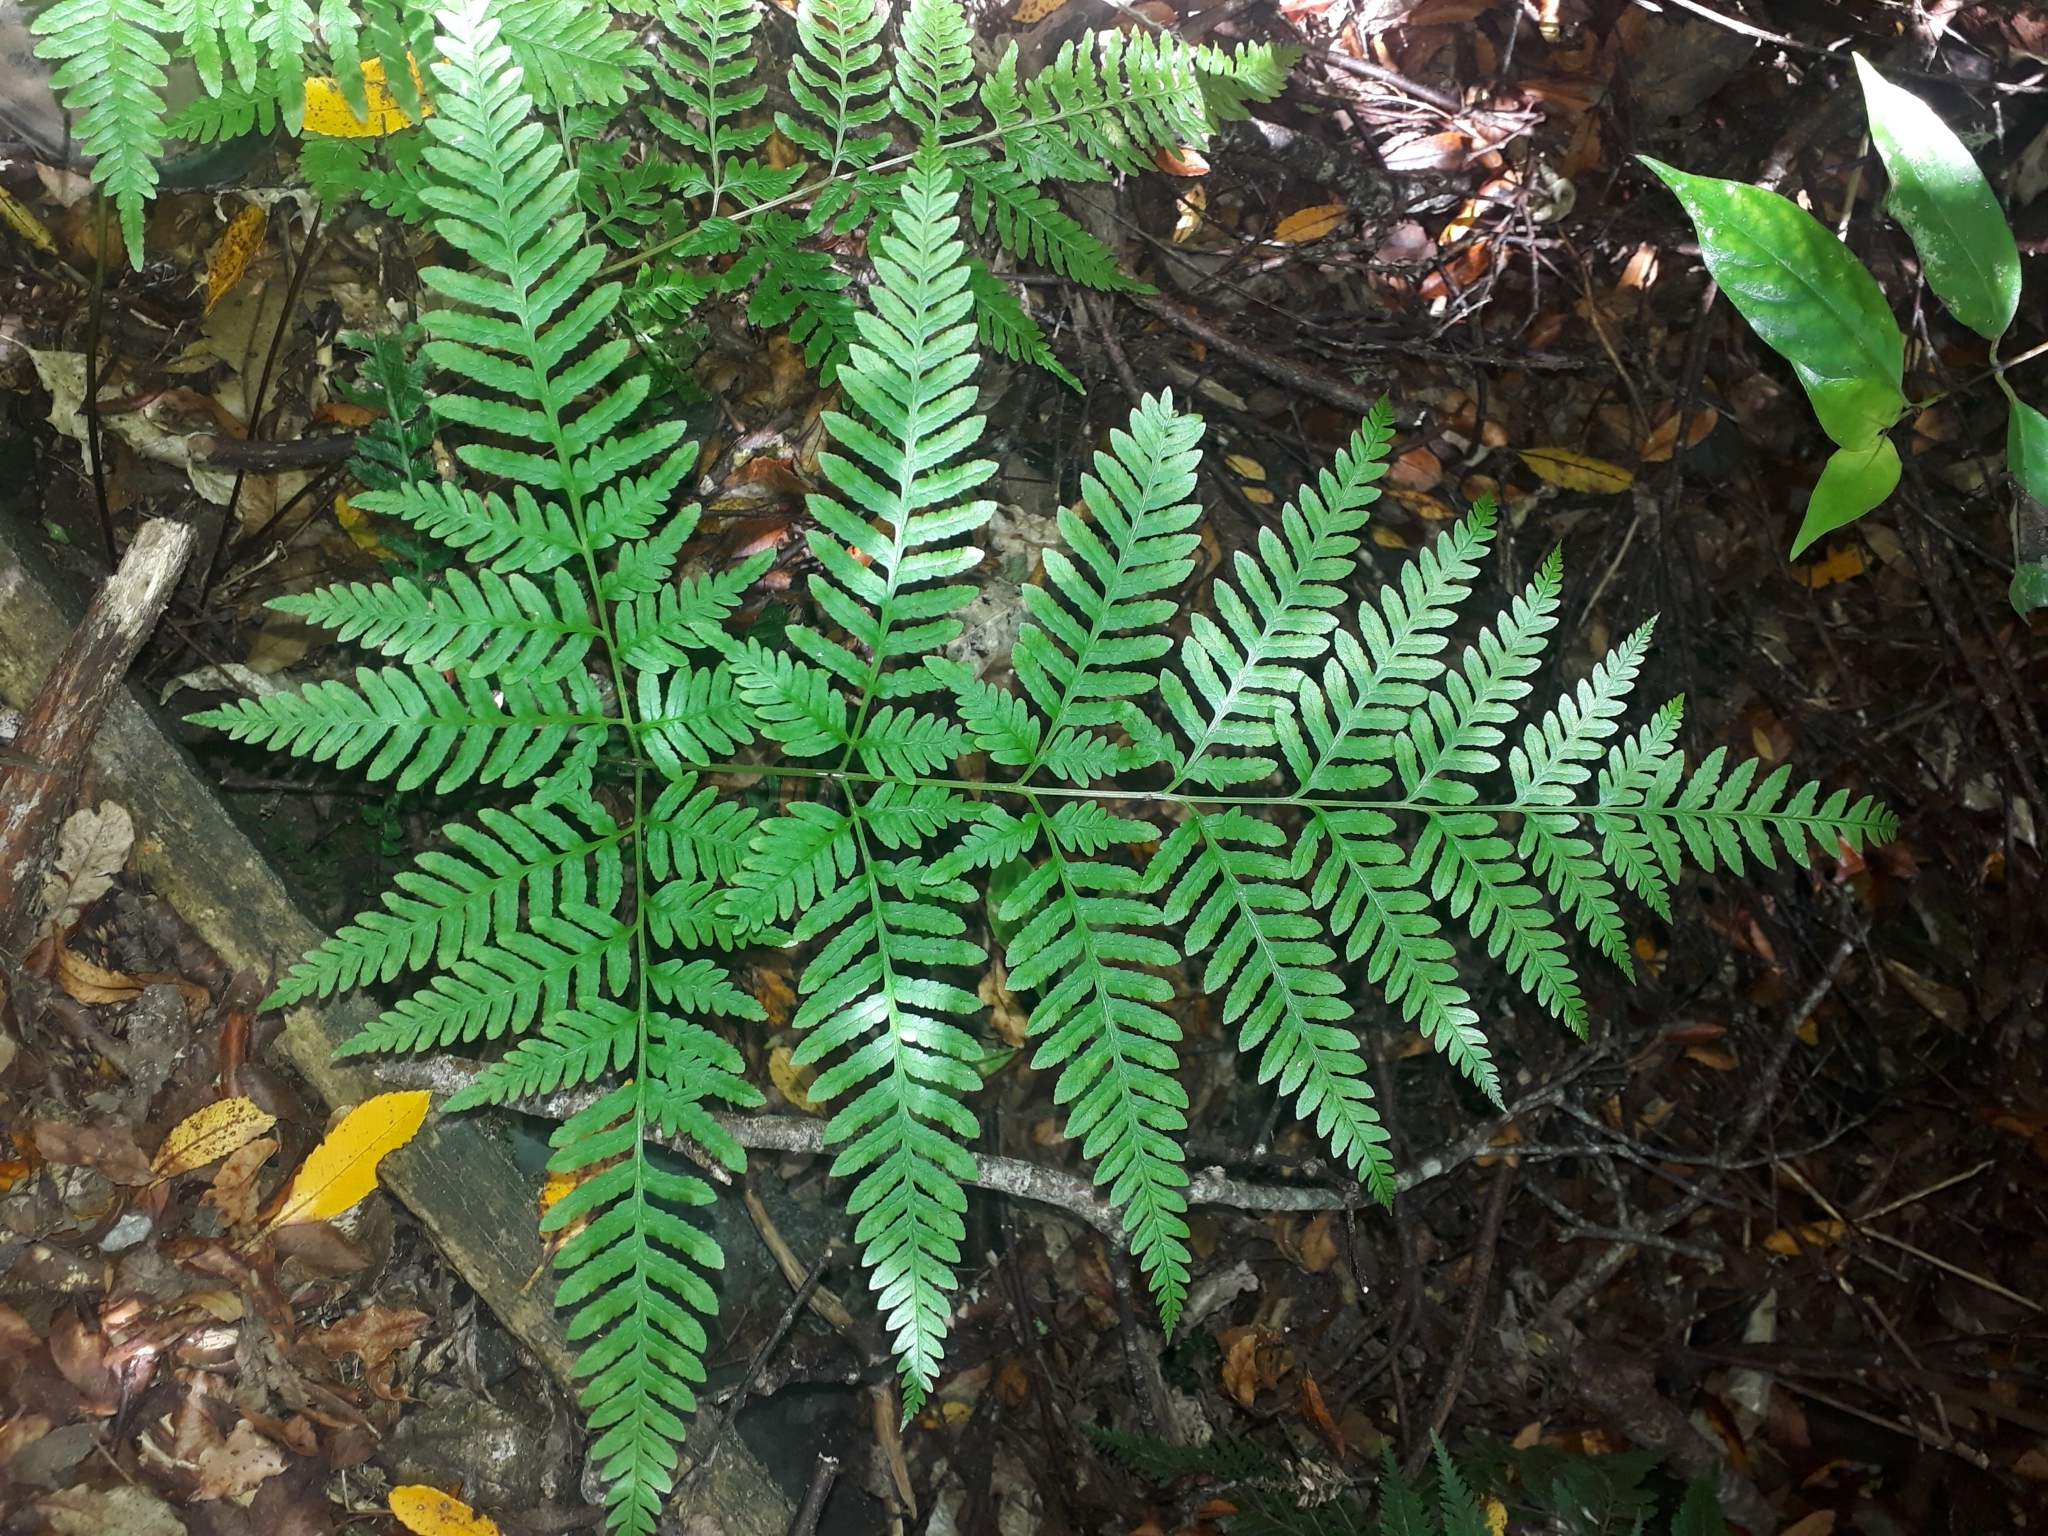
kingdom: Plantae
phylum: Tracheophyta
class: Polypodiopsida
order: Polypodiales
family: Pteridaceae
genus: Pteris
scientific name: Pteris tremula
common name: Australian brake
